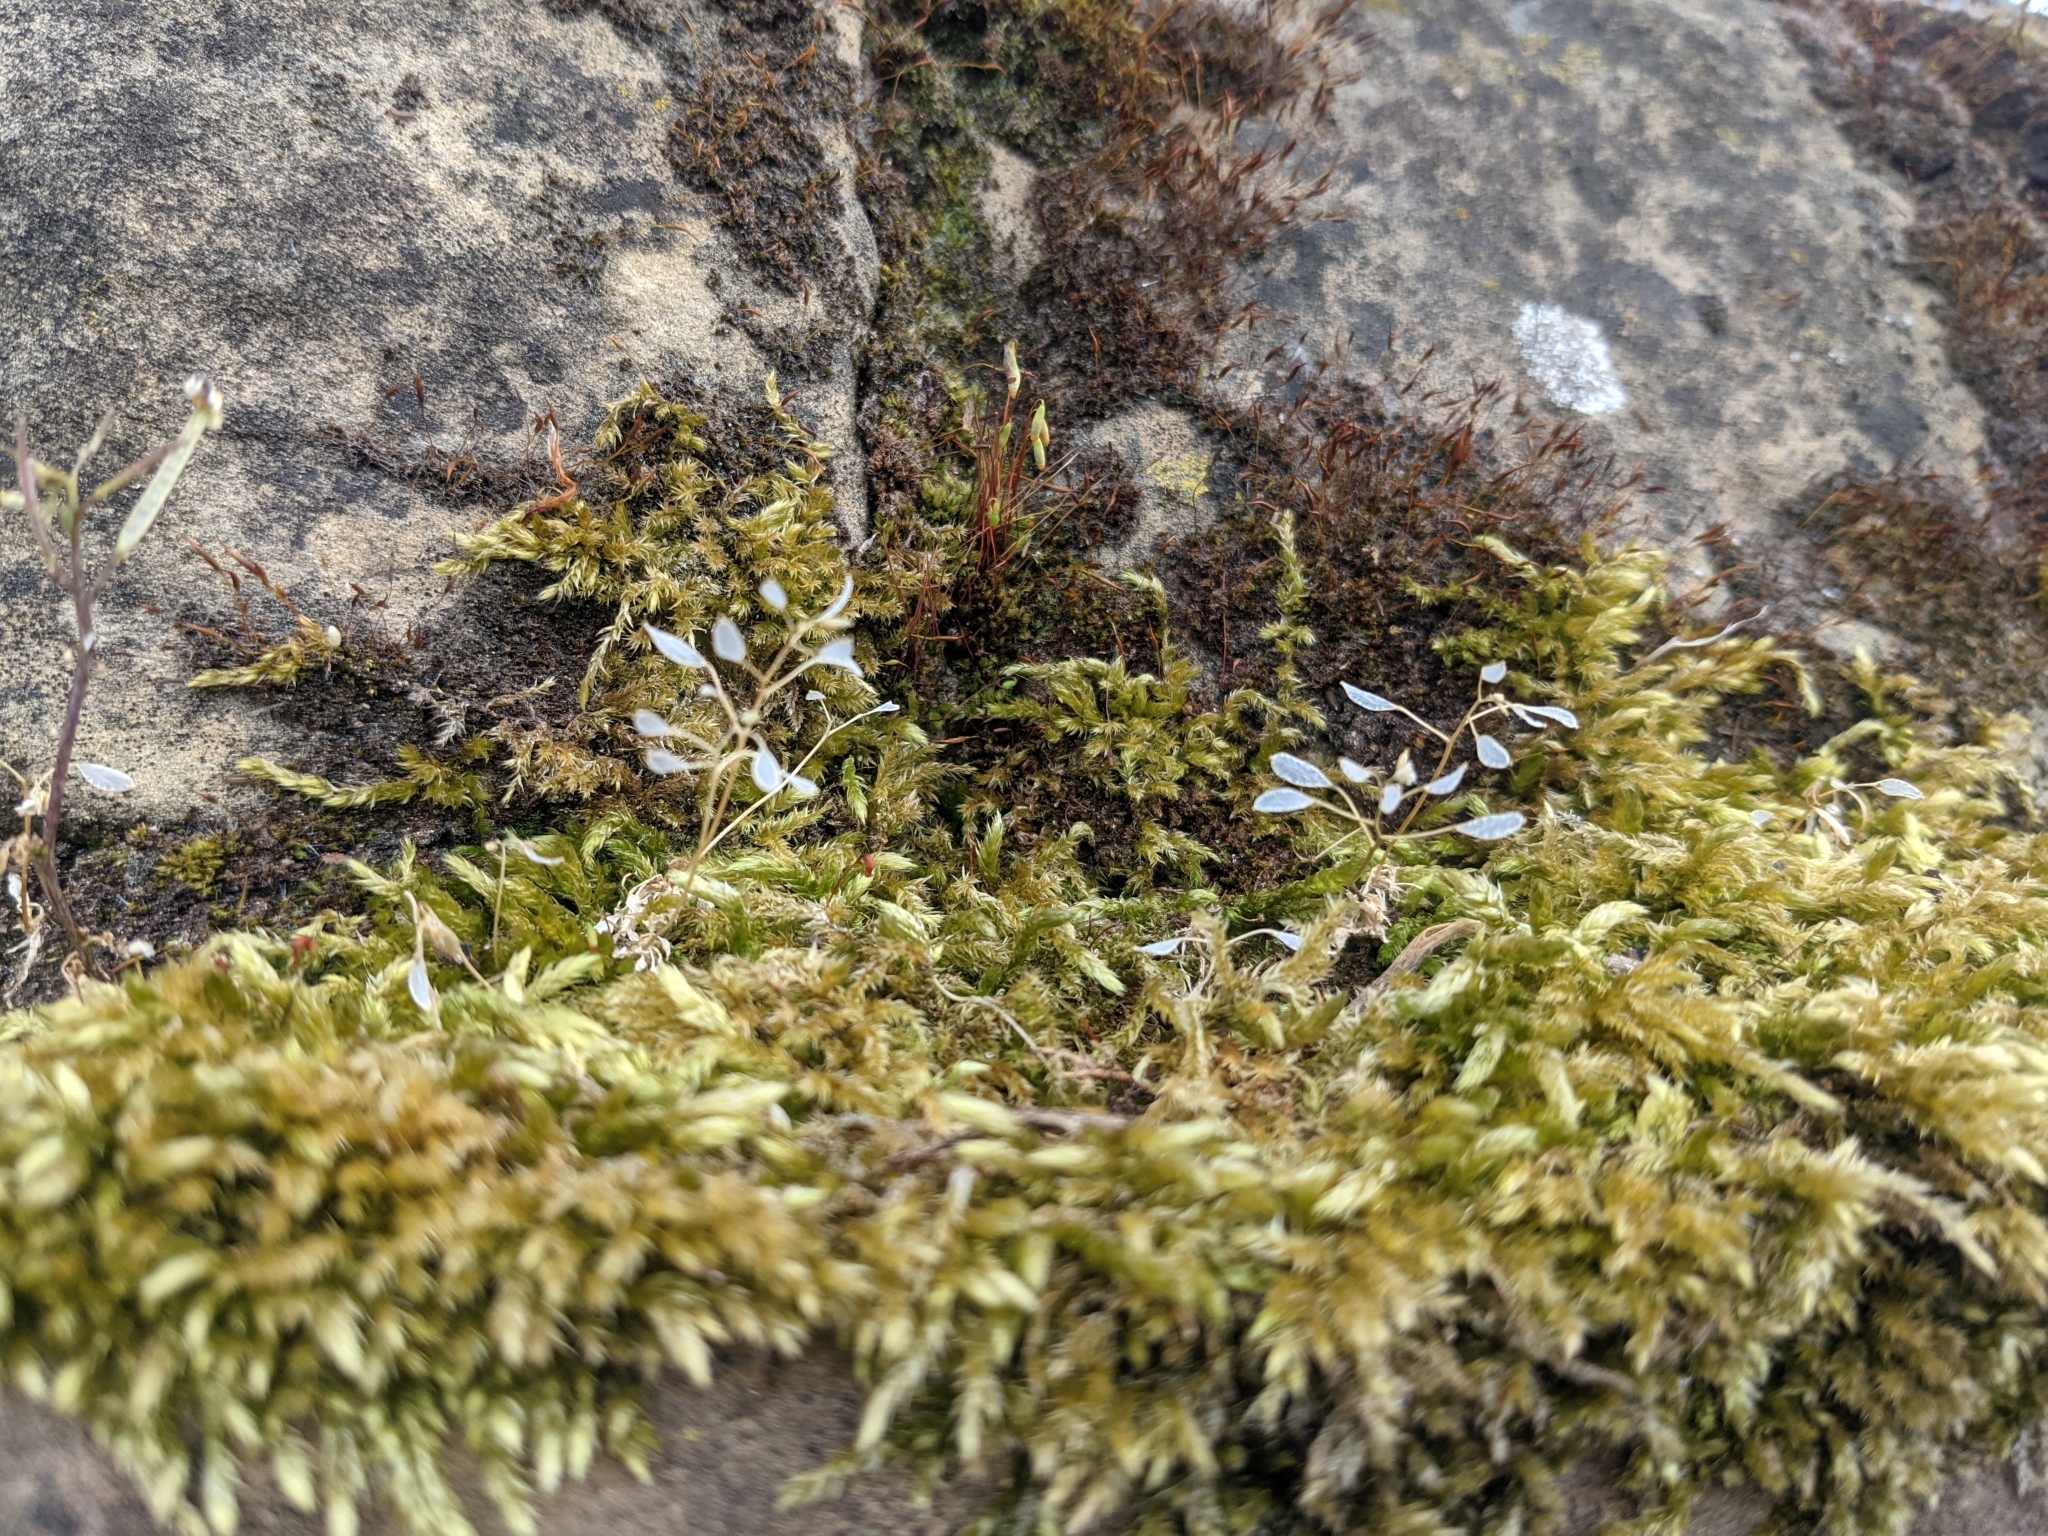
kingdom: Plantae
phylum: Bryophyta
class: Bryopsida
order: Hypnales
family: Brachytheciaceae
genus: Brachythecium
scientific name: Brachythecium rutabulum
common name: Rough-stalked feather-moss
